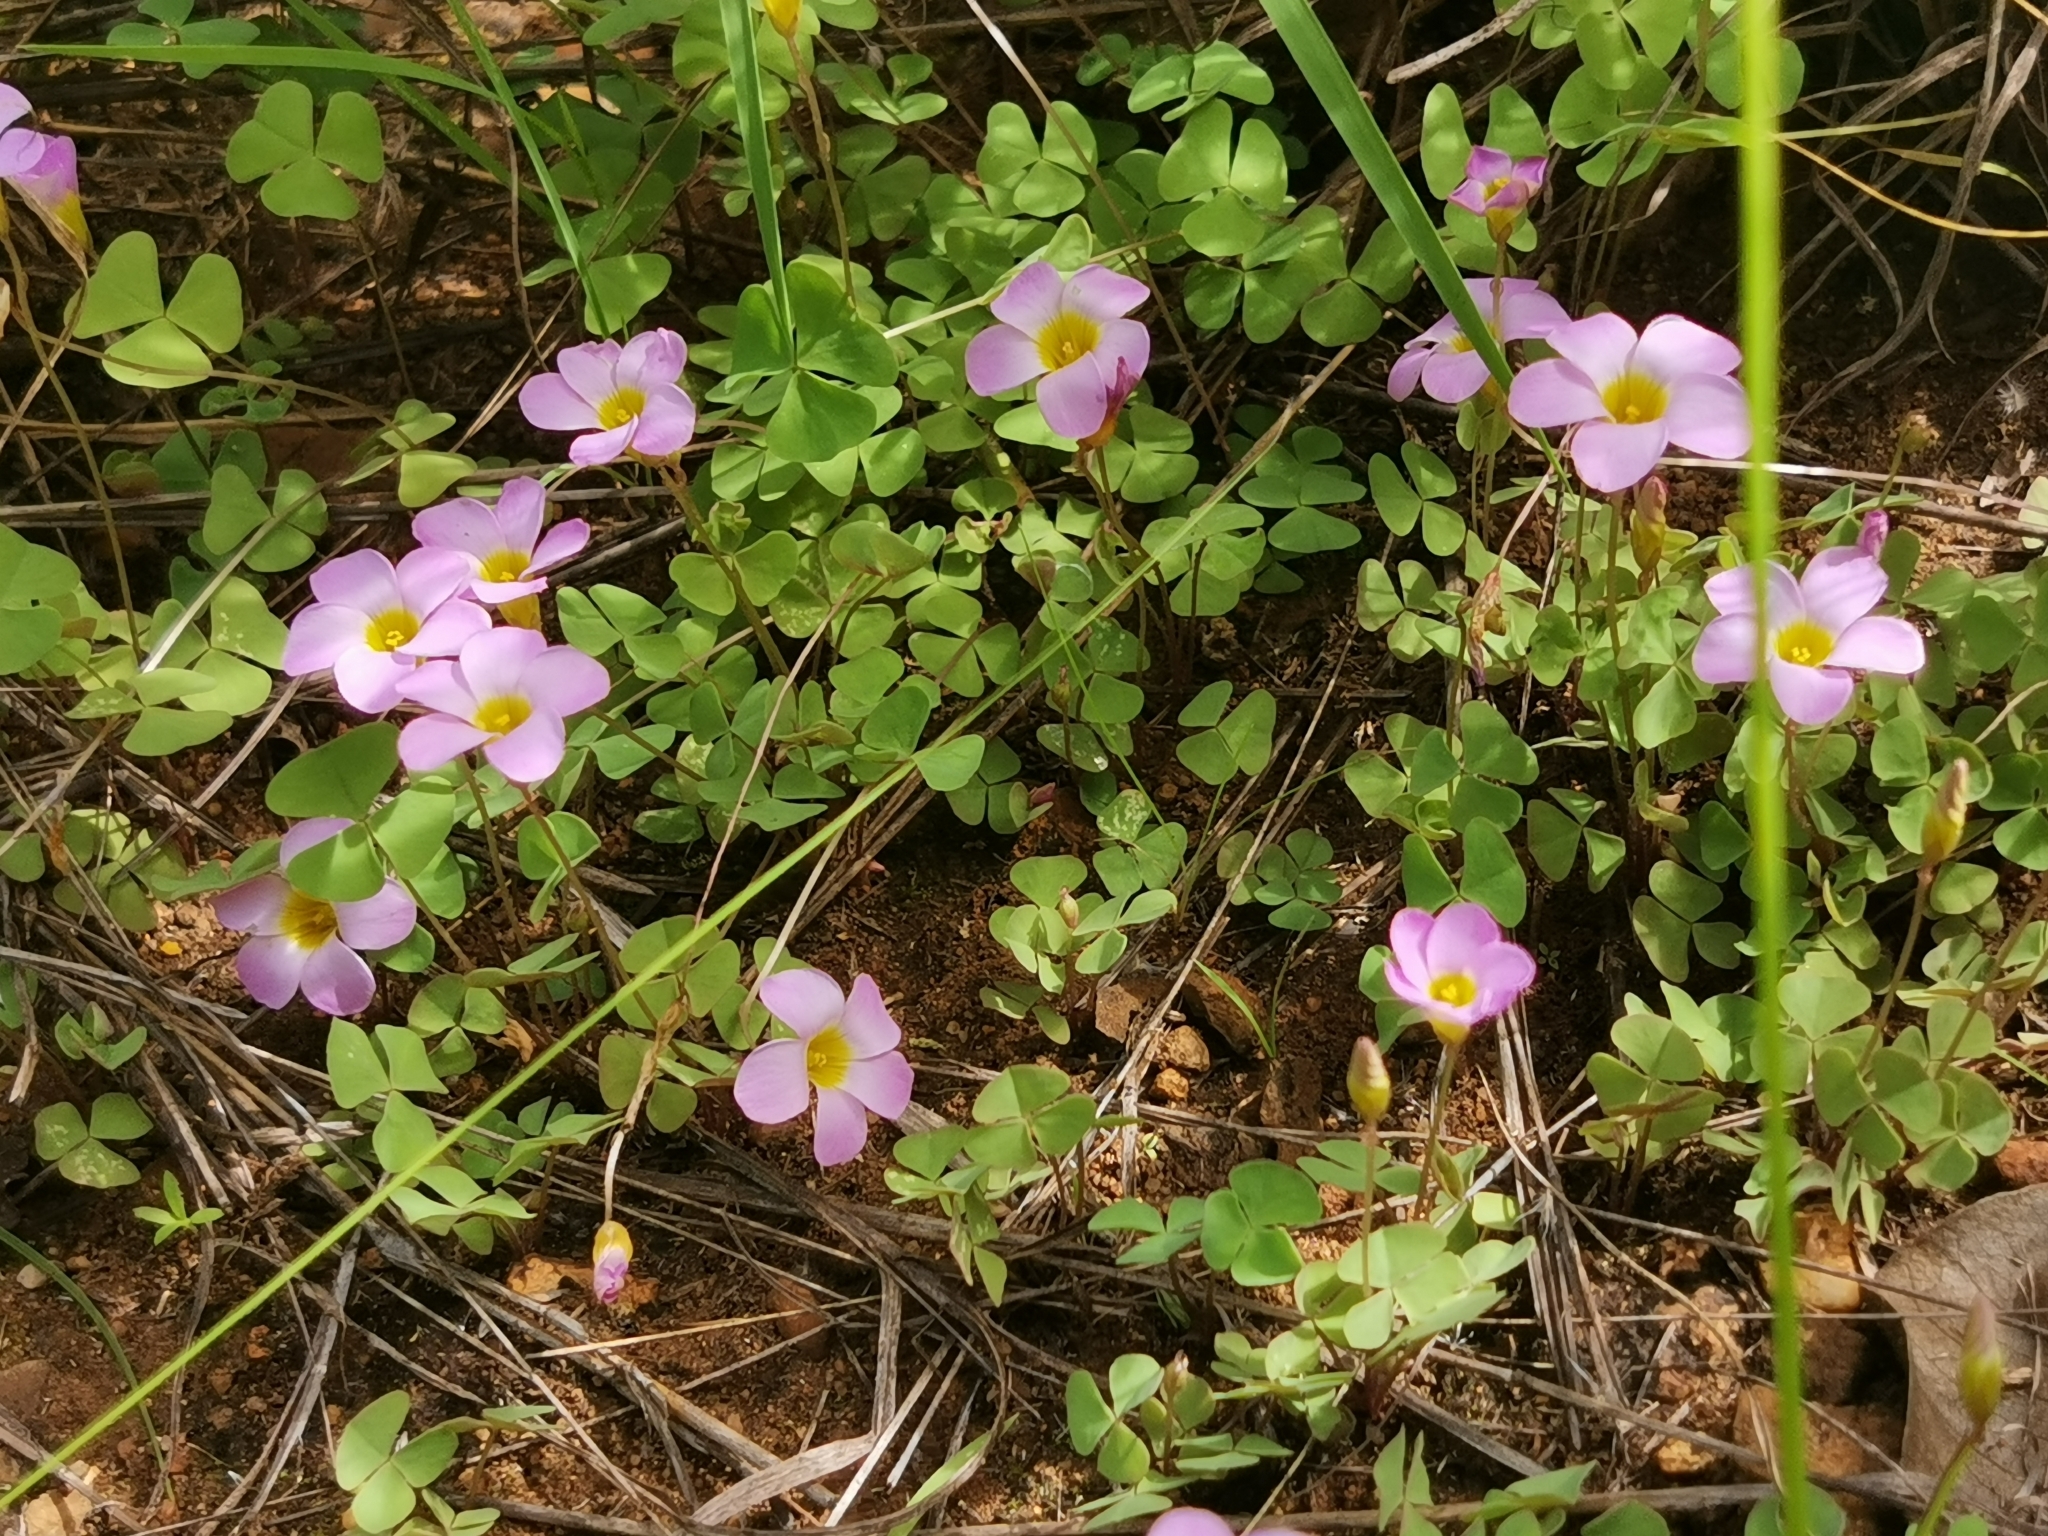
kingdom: Plantae
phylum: Tracheophyta
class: Magnoliopsida
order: Oxalidales
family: Oxalidaceae
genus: Oxalis
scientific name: Oxalis obliquifolia
